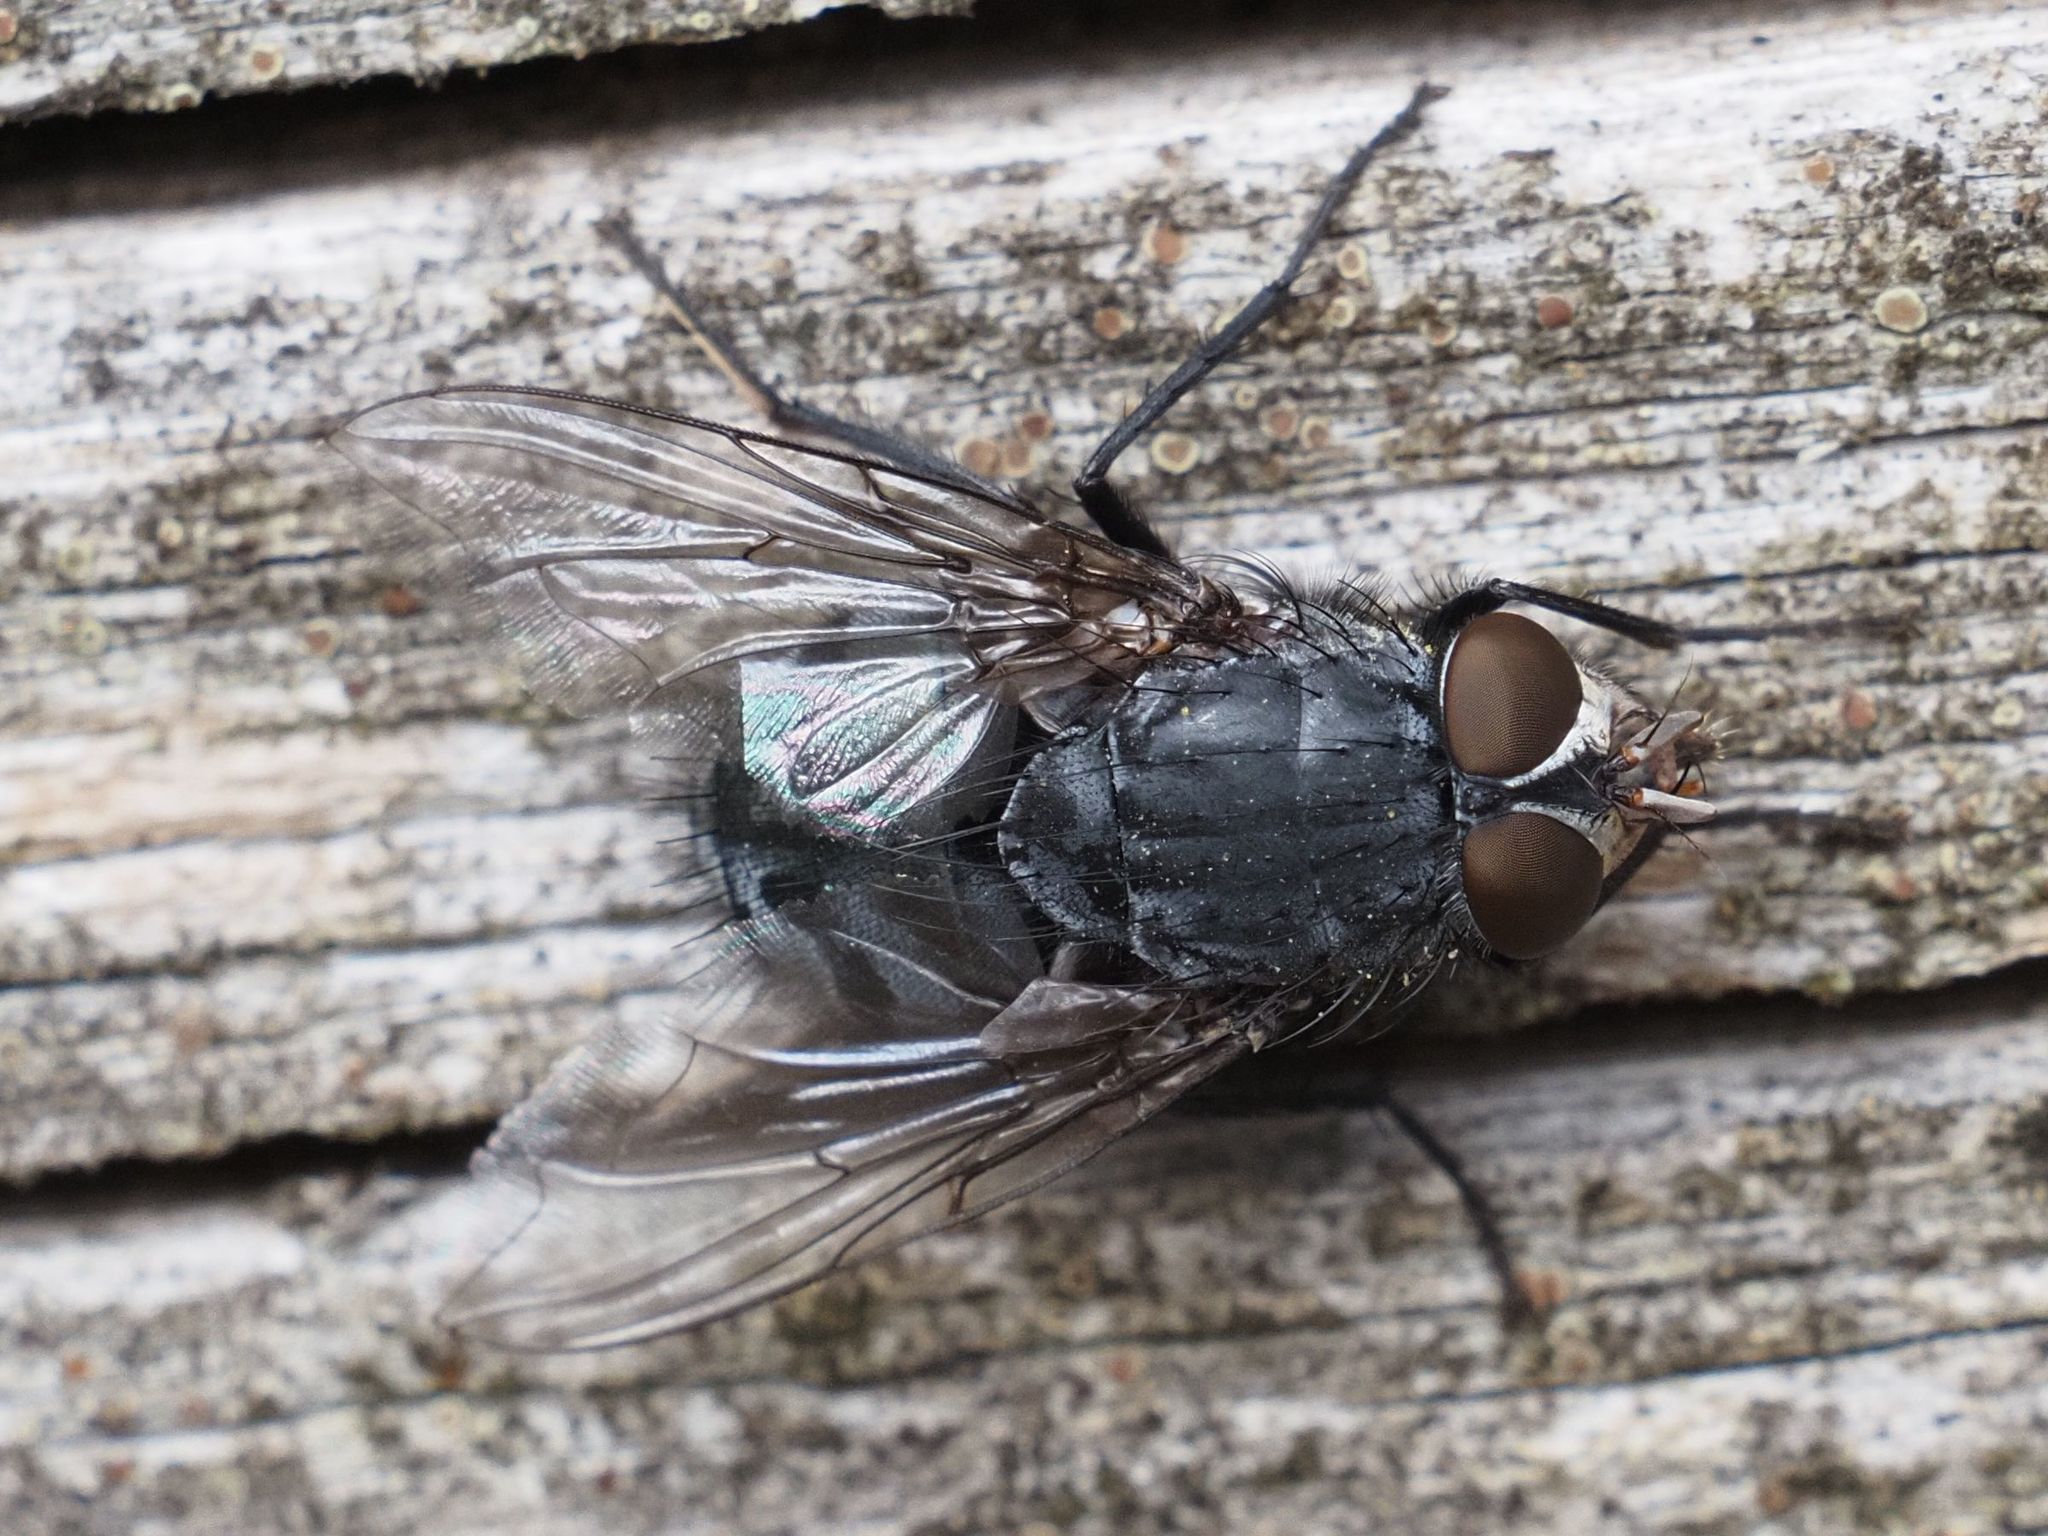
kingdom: Animalia
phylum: Arthropoda
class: Insecta
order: Diptera
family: Calliphoridae
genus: Calliphora
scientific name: Calliphora vicina
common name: Common blow flie
